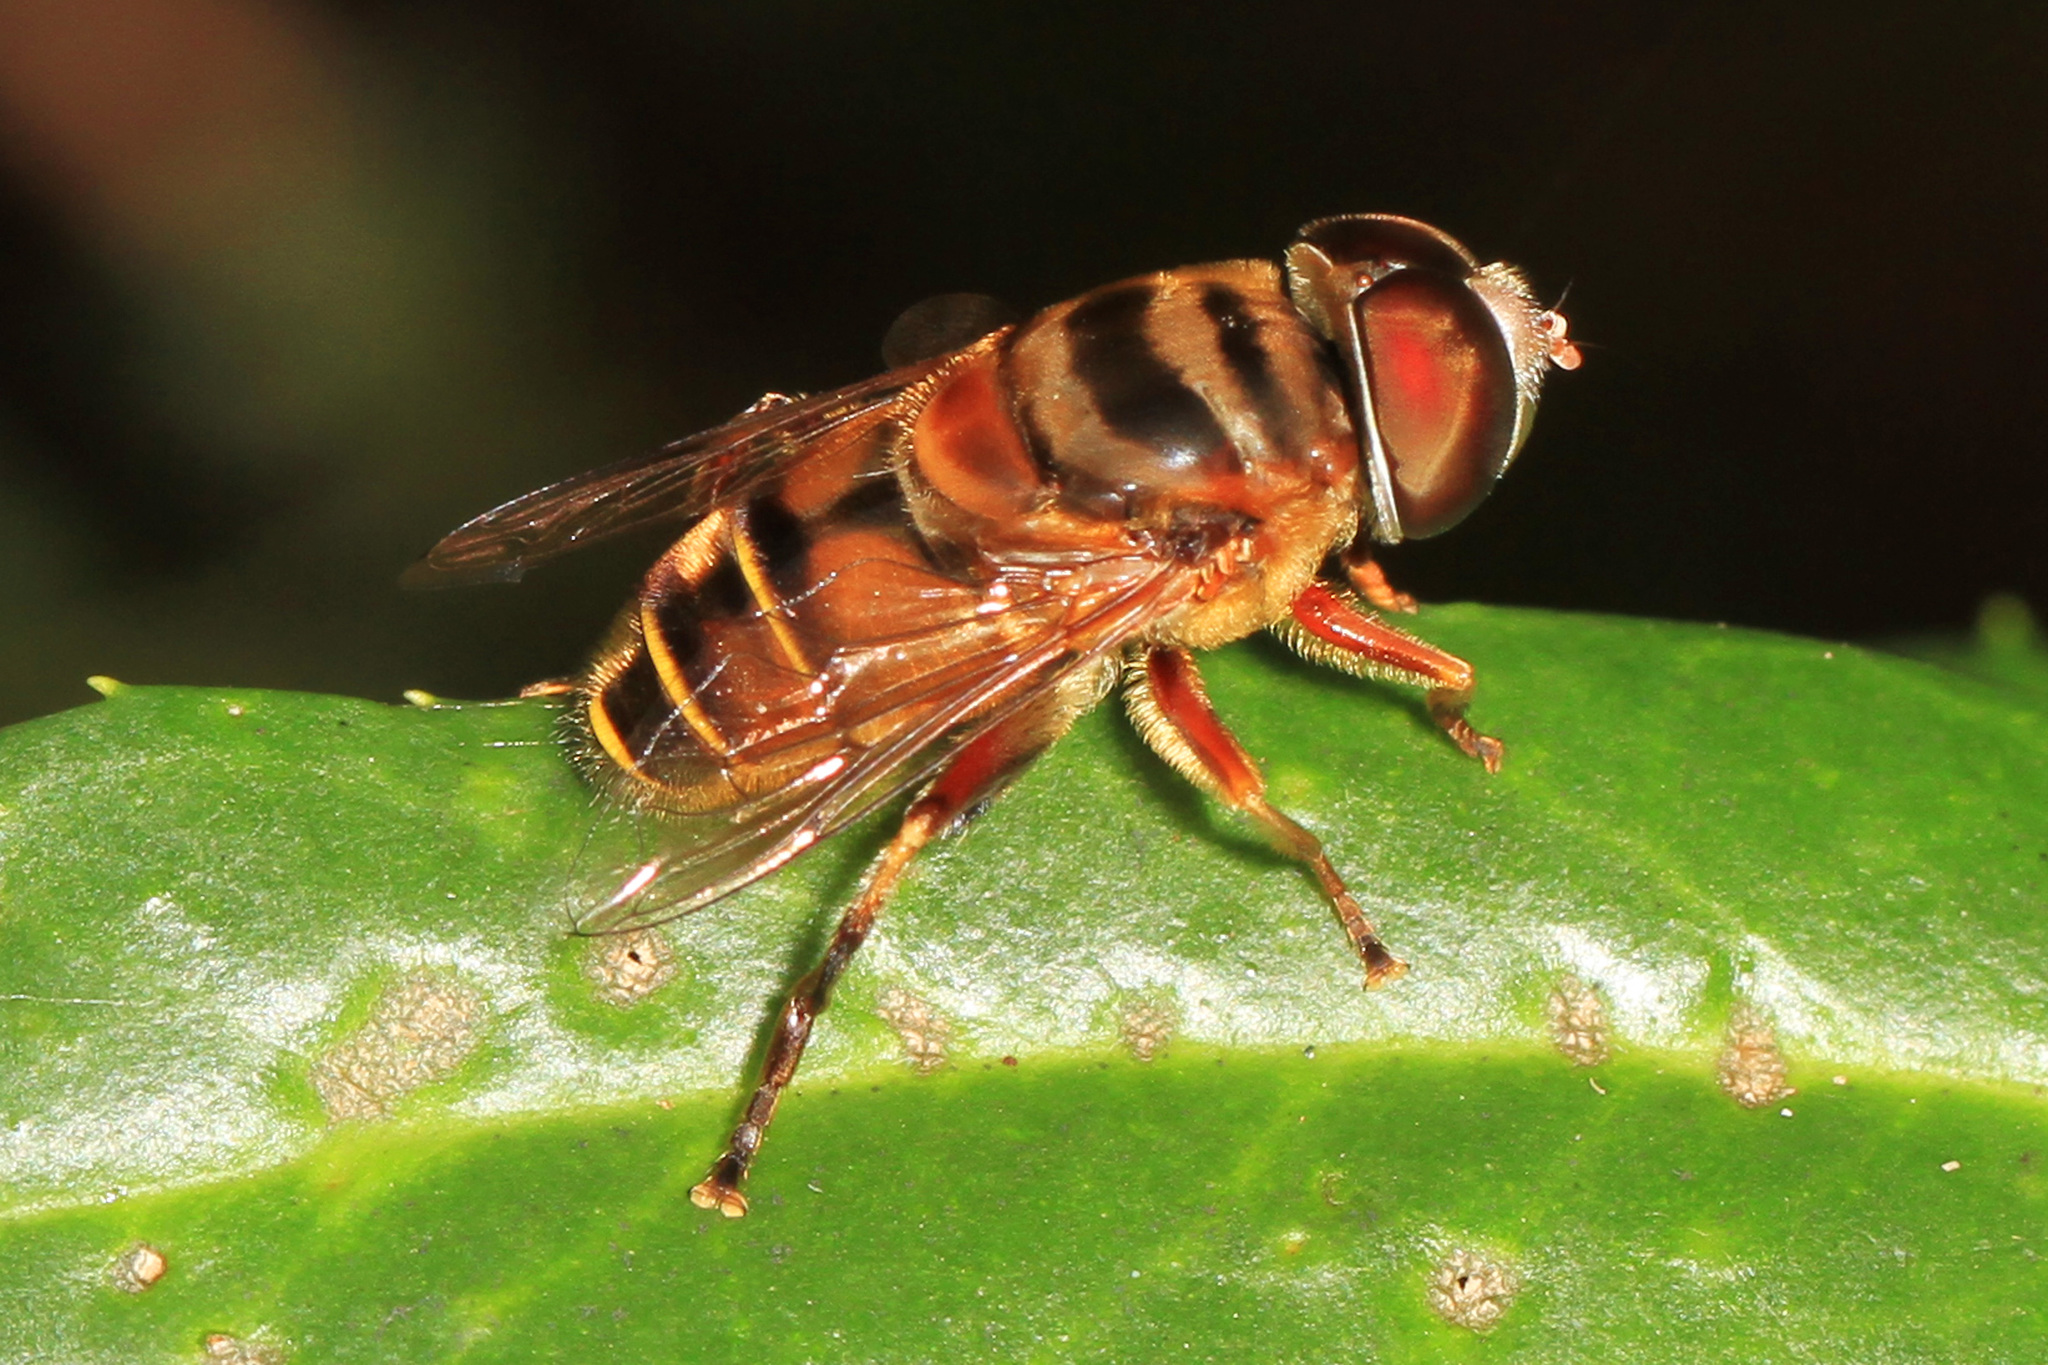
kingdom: Animalia
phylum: Arthropoda
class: Insecta
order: Diptera
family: Syrphidae
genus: Palpada
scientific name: Palpada vinetorum
